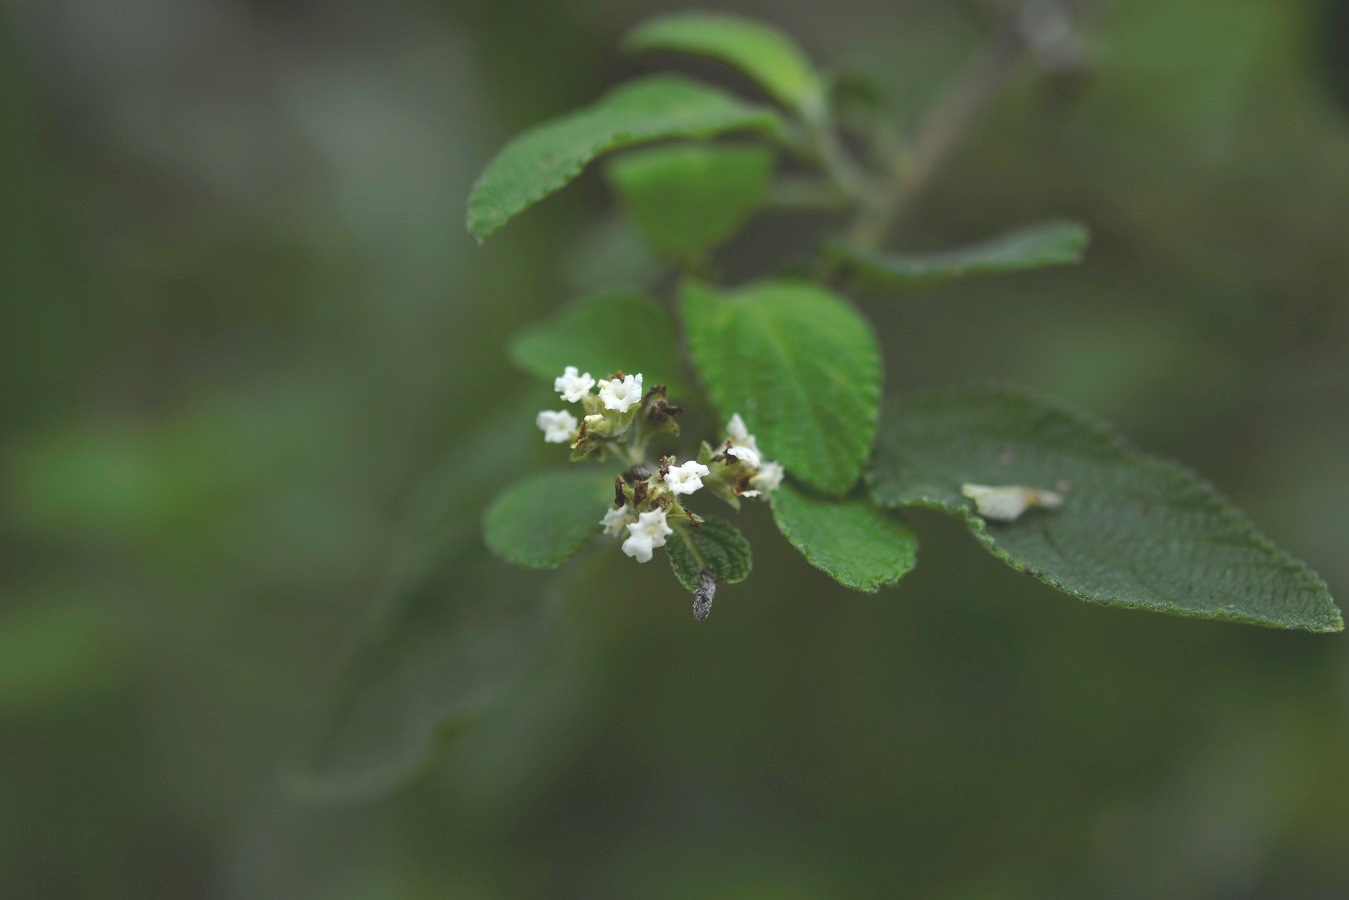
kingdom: Plantae
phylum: Tracheophyta
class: Magnoliopsida
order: Lamiales
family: Verbenaceae
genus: Lantana
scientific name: Lantana involucrata
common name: Black sage
